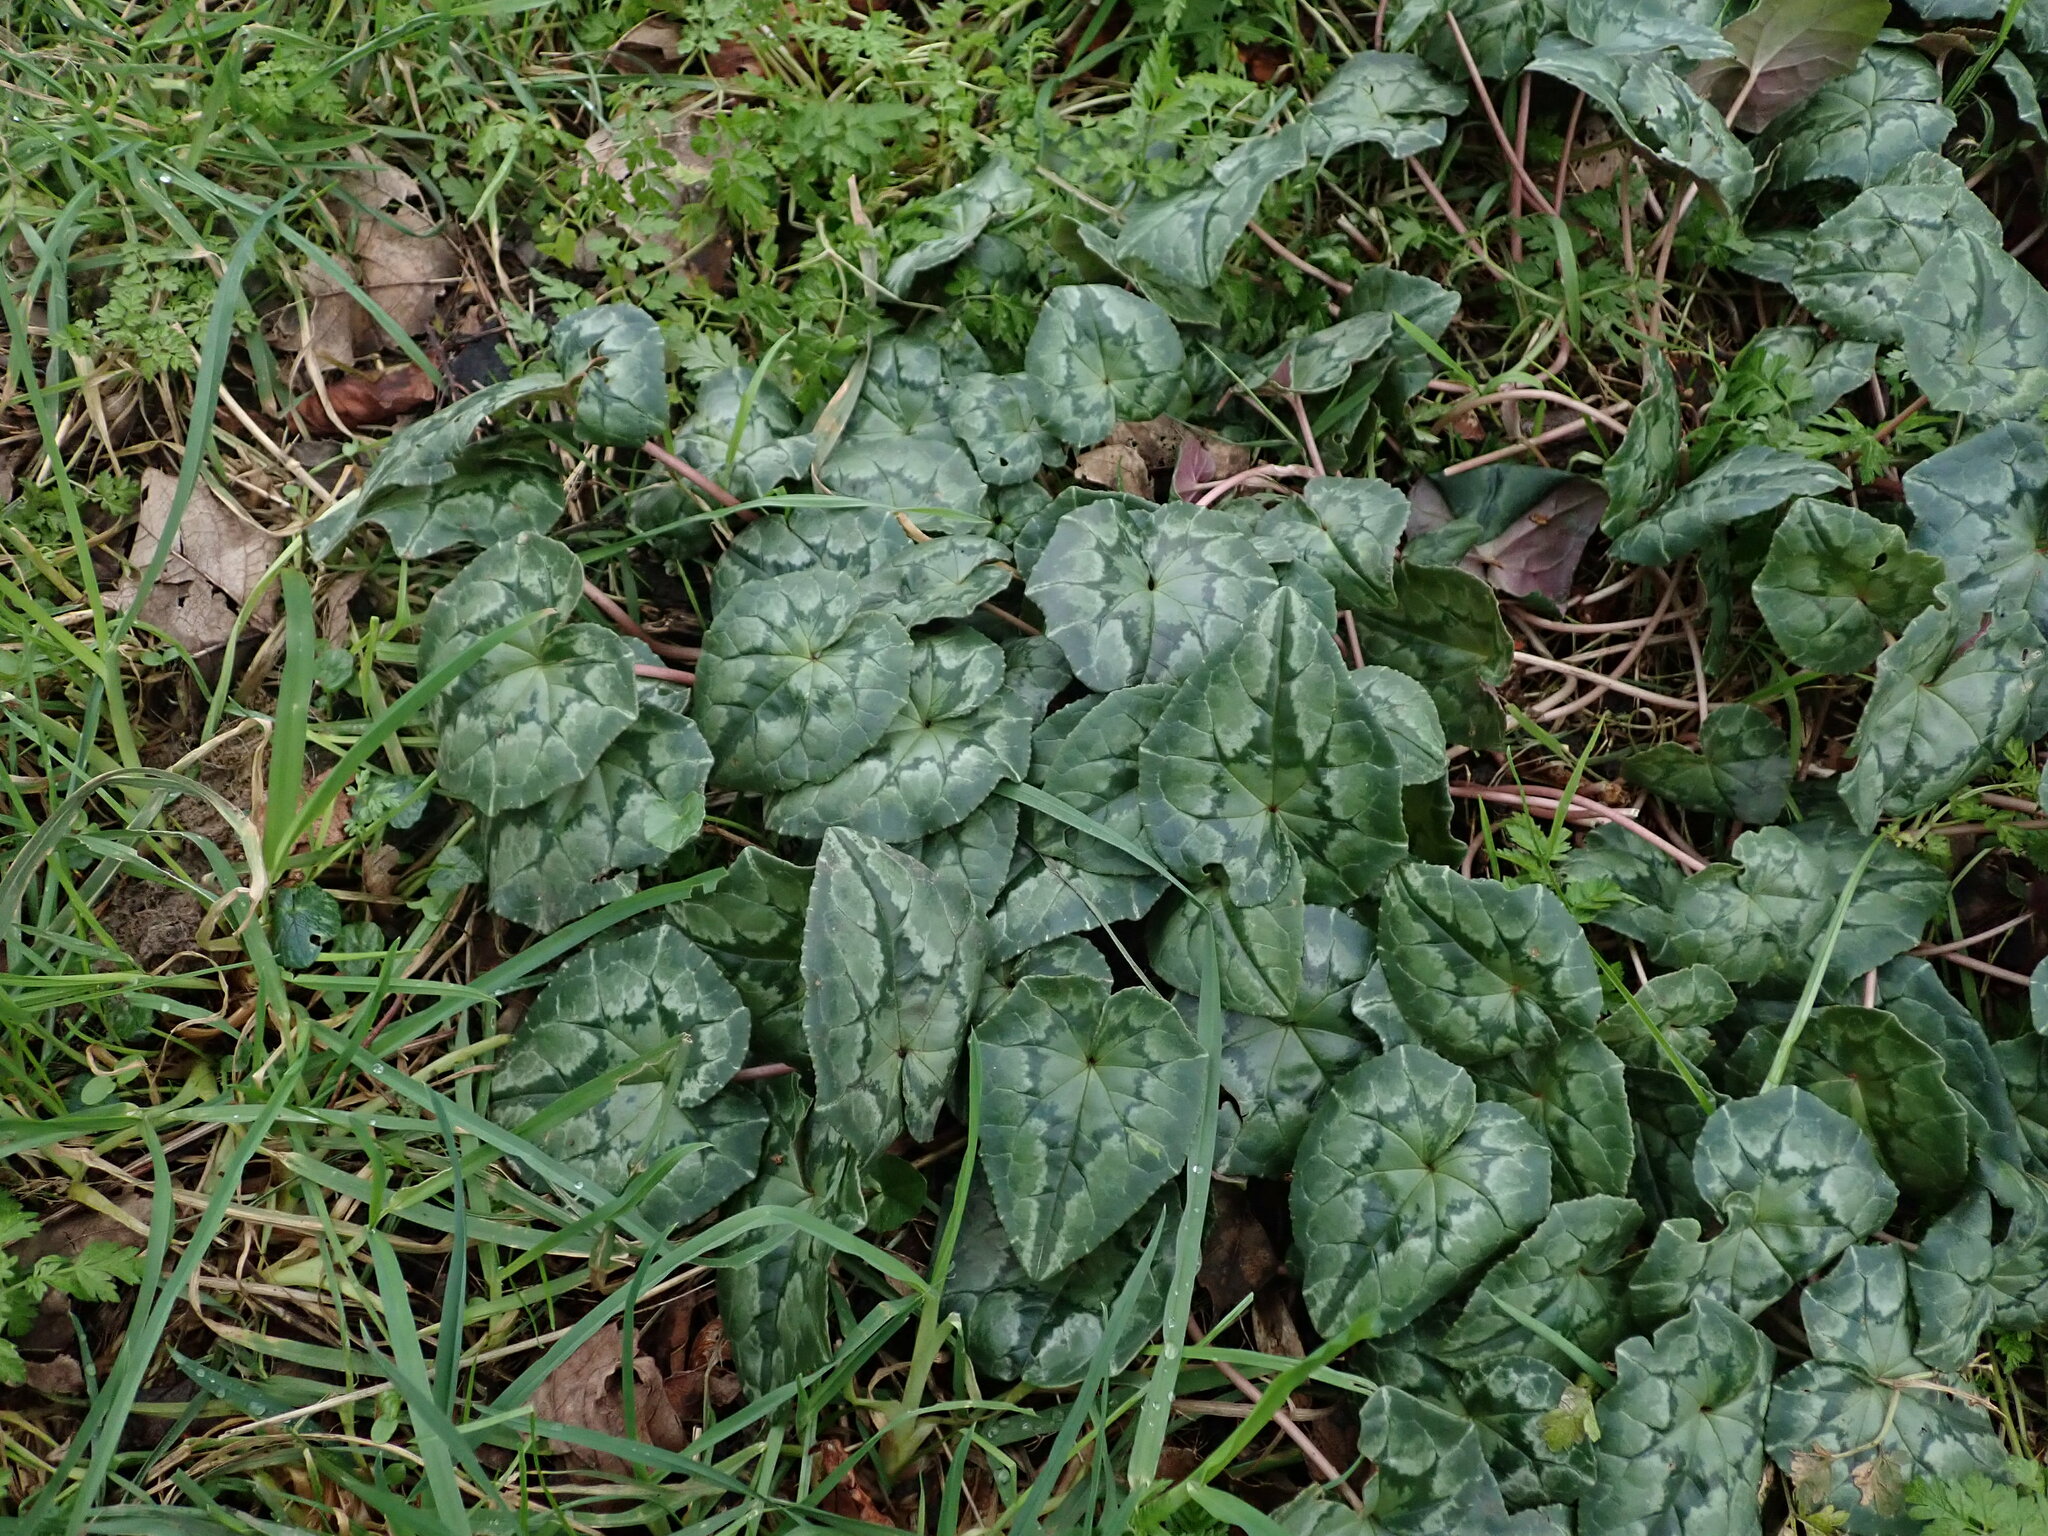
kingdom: Plantae
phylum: Tracheophyta
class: Magnoliopsida
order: Ericales
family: Primulaceae
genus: Cyclamen
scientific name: Cyclamen hederifolium
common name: Sowbread
